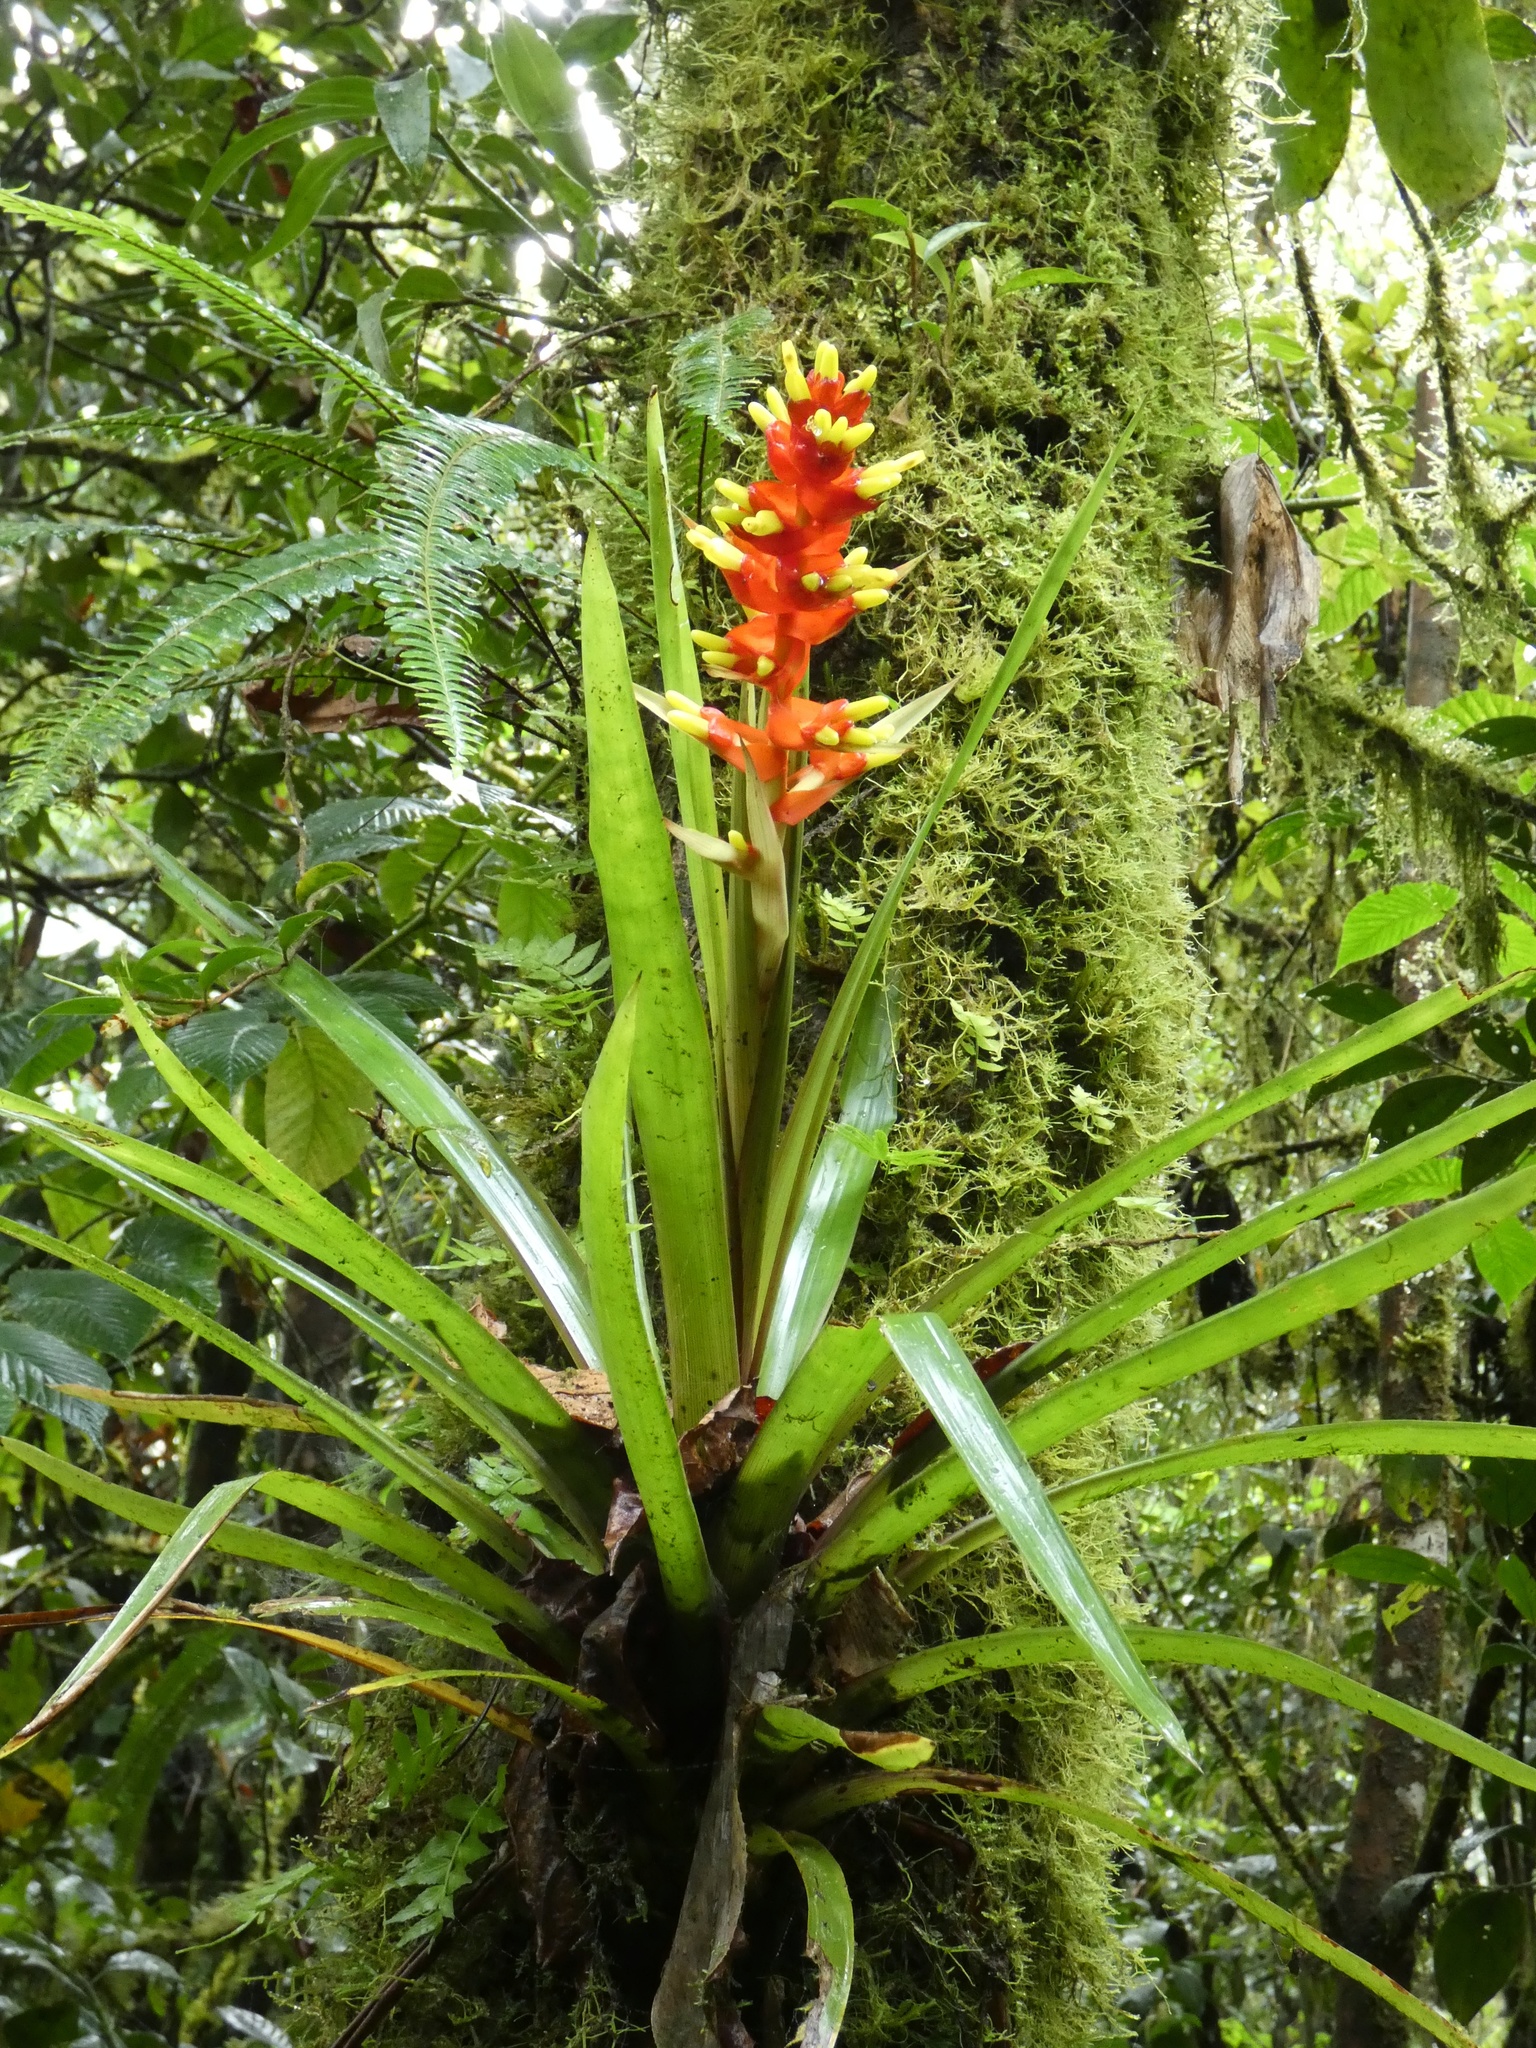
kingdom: Plantae
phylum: Tracheophyta
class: Liliopsida
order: Poales
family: Bromeliaceae
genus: Guzmania
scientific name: Guzmania donnellsmithii
